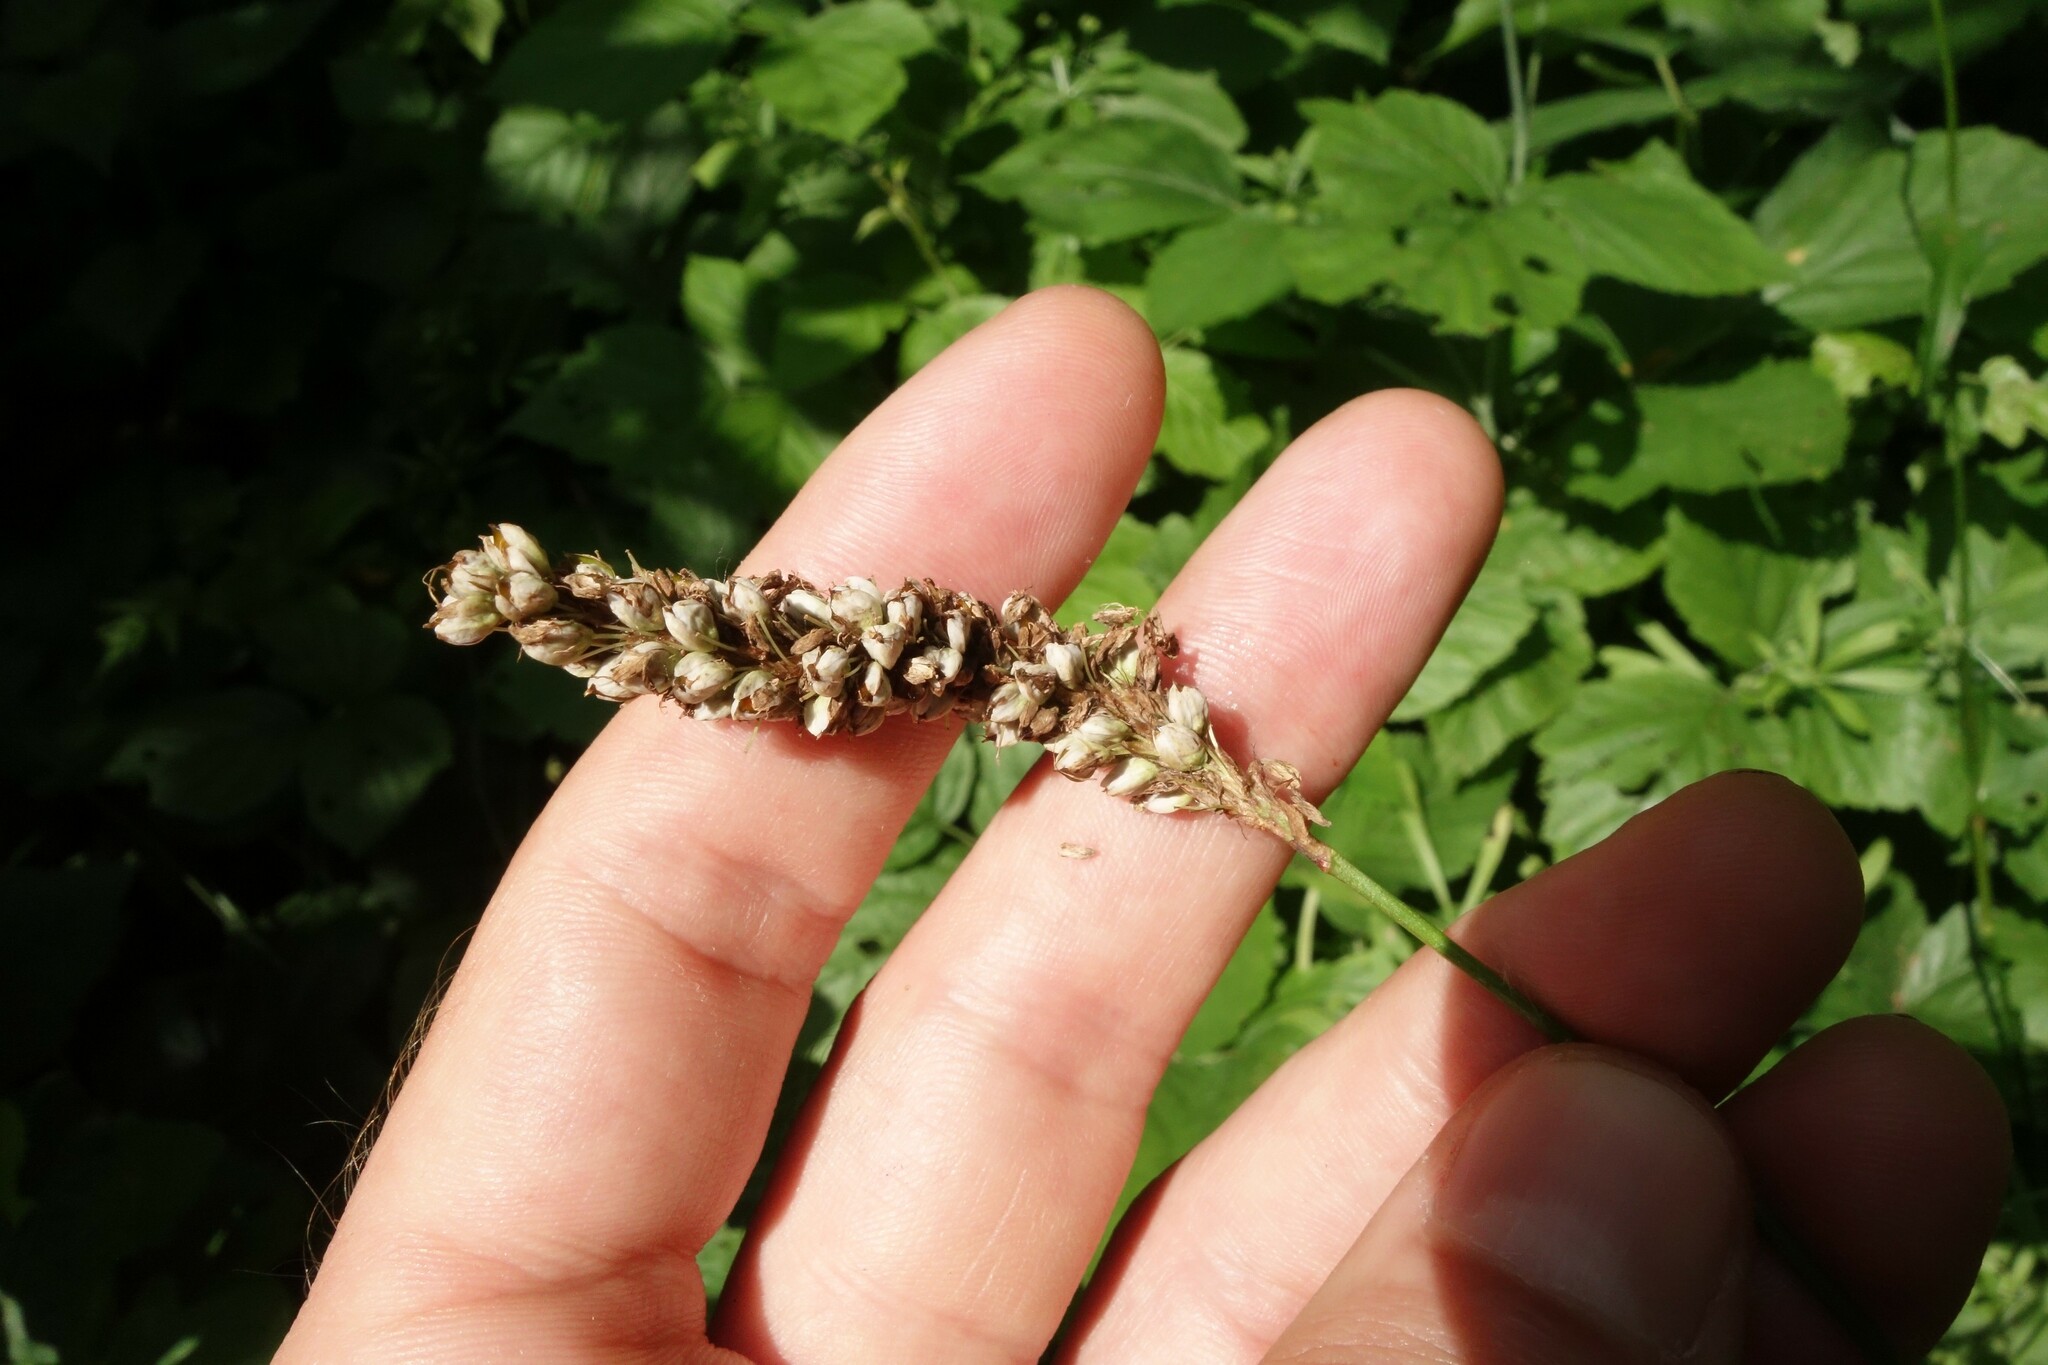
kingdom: Plantae
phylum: Tracheophyta
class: Magnoliopsida
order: Caryophyllales
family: Polygonaceae
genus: Bistorta
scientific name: Bistorta officinalis
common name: Common bistort
